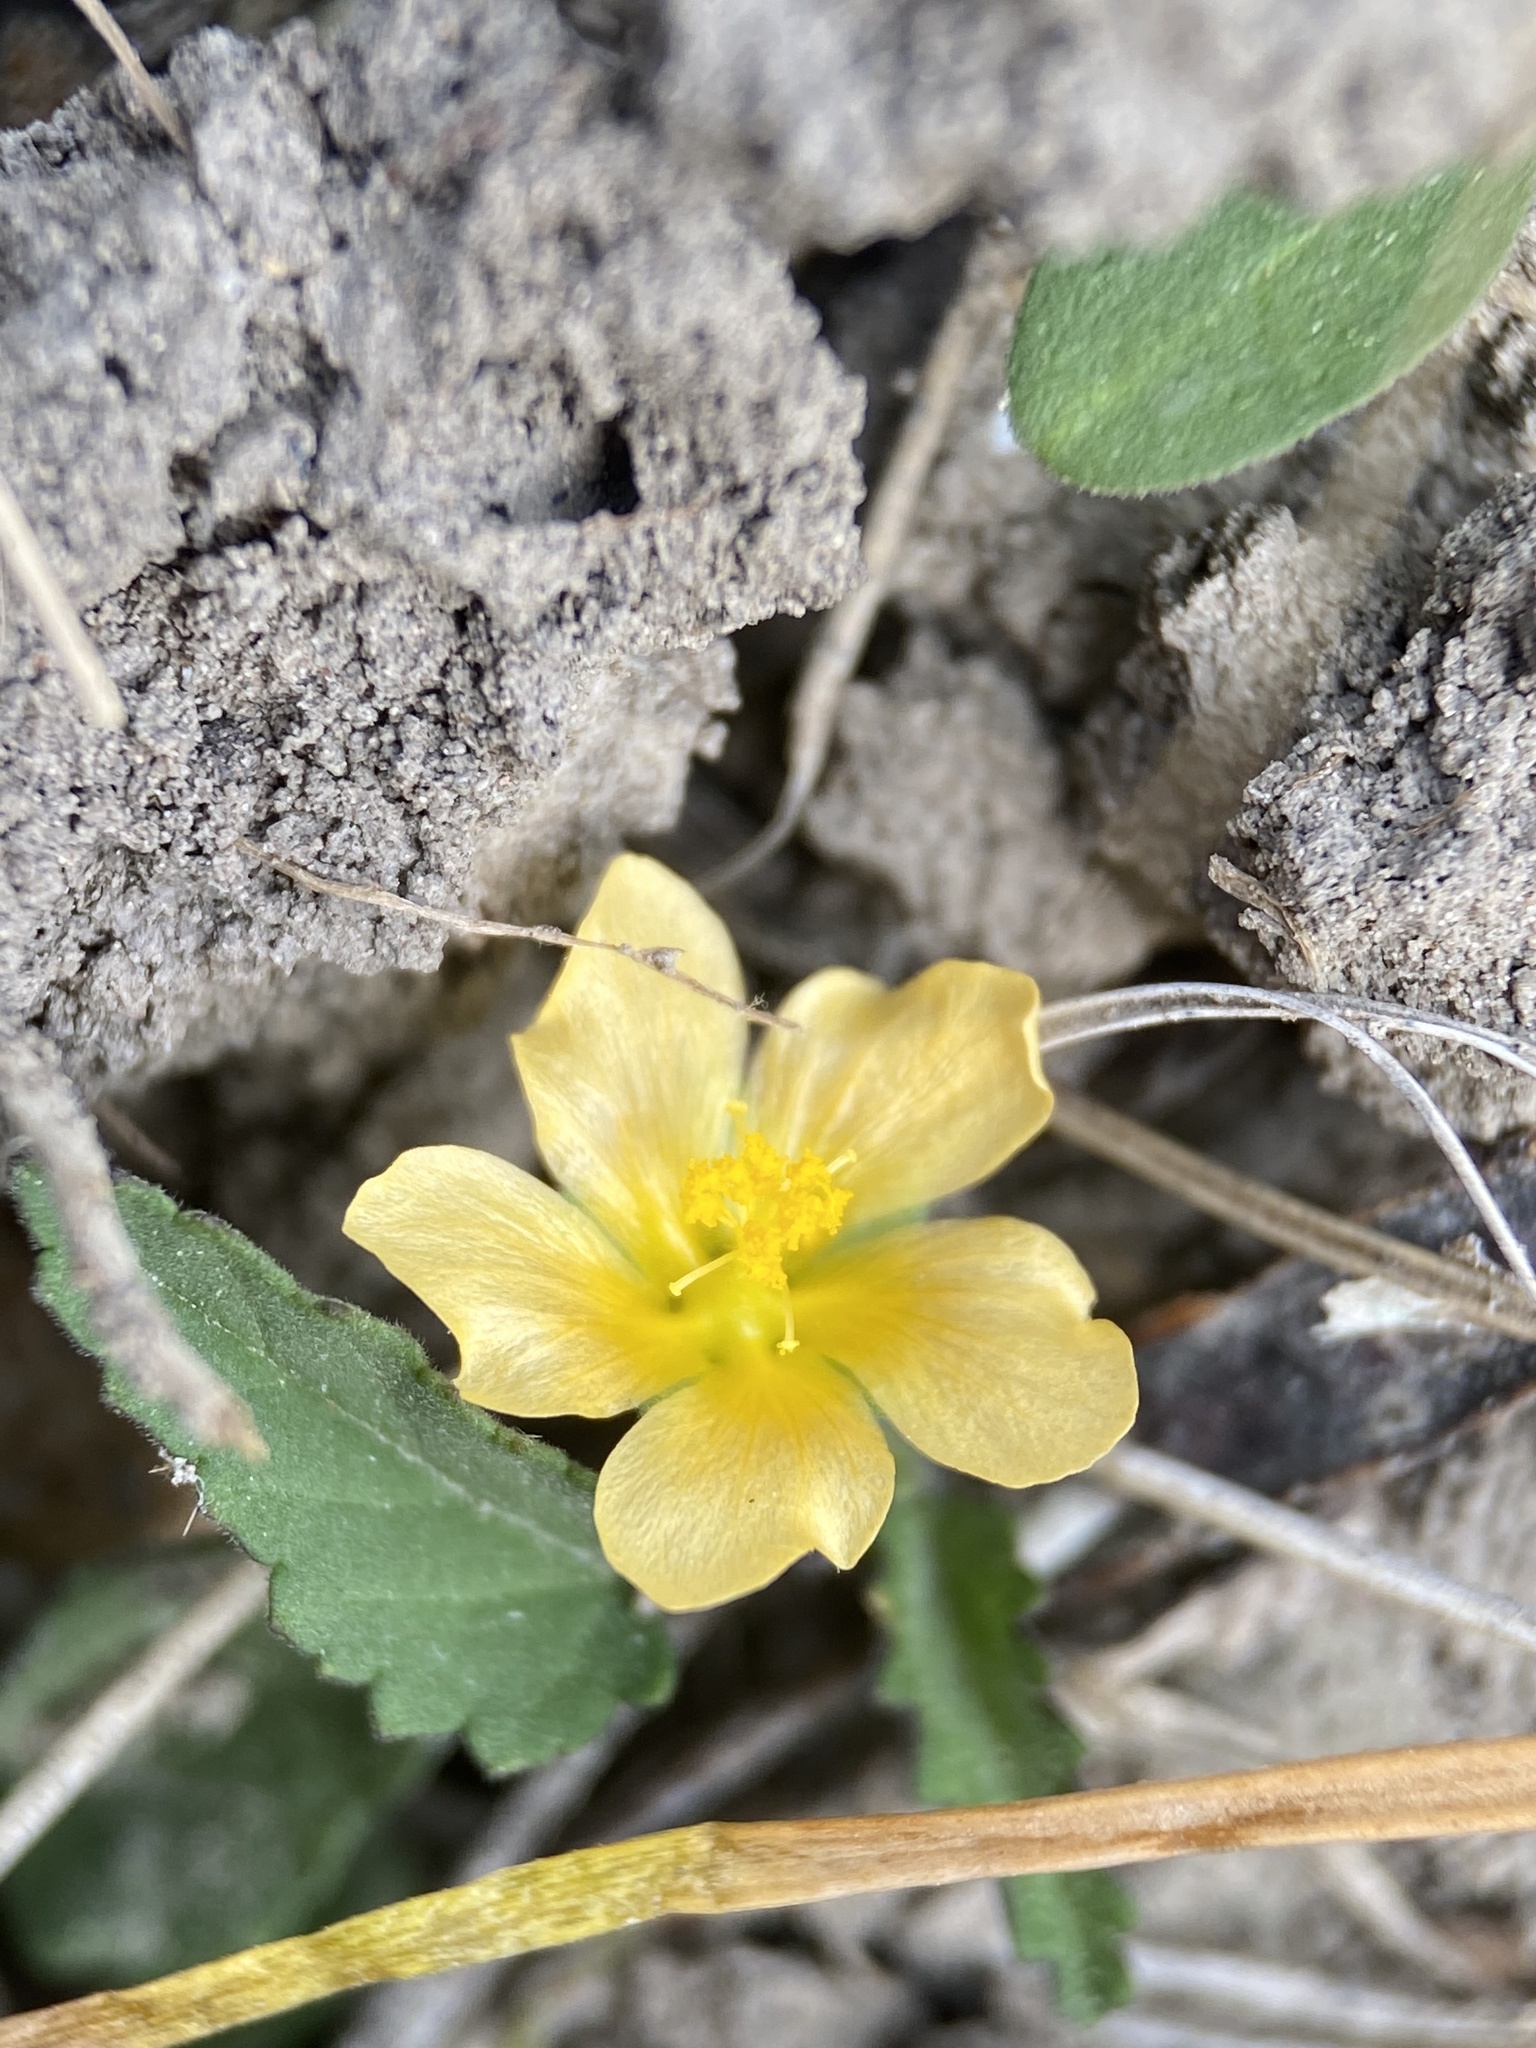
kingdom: Plantae
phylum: Tracheophyta
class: Magnoliopsida
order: Malvales
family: Malvaceae
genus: Sida
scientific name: Sida abutilifolia
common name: Spreading fanpetals
